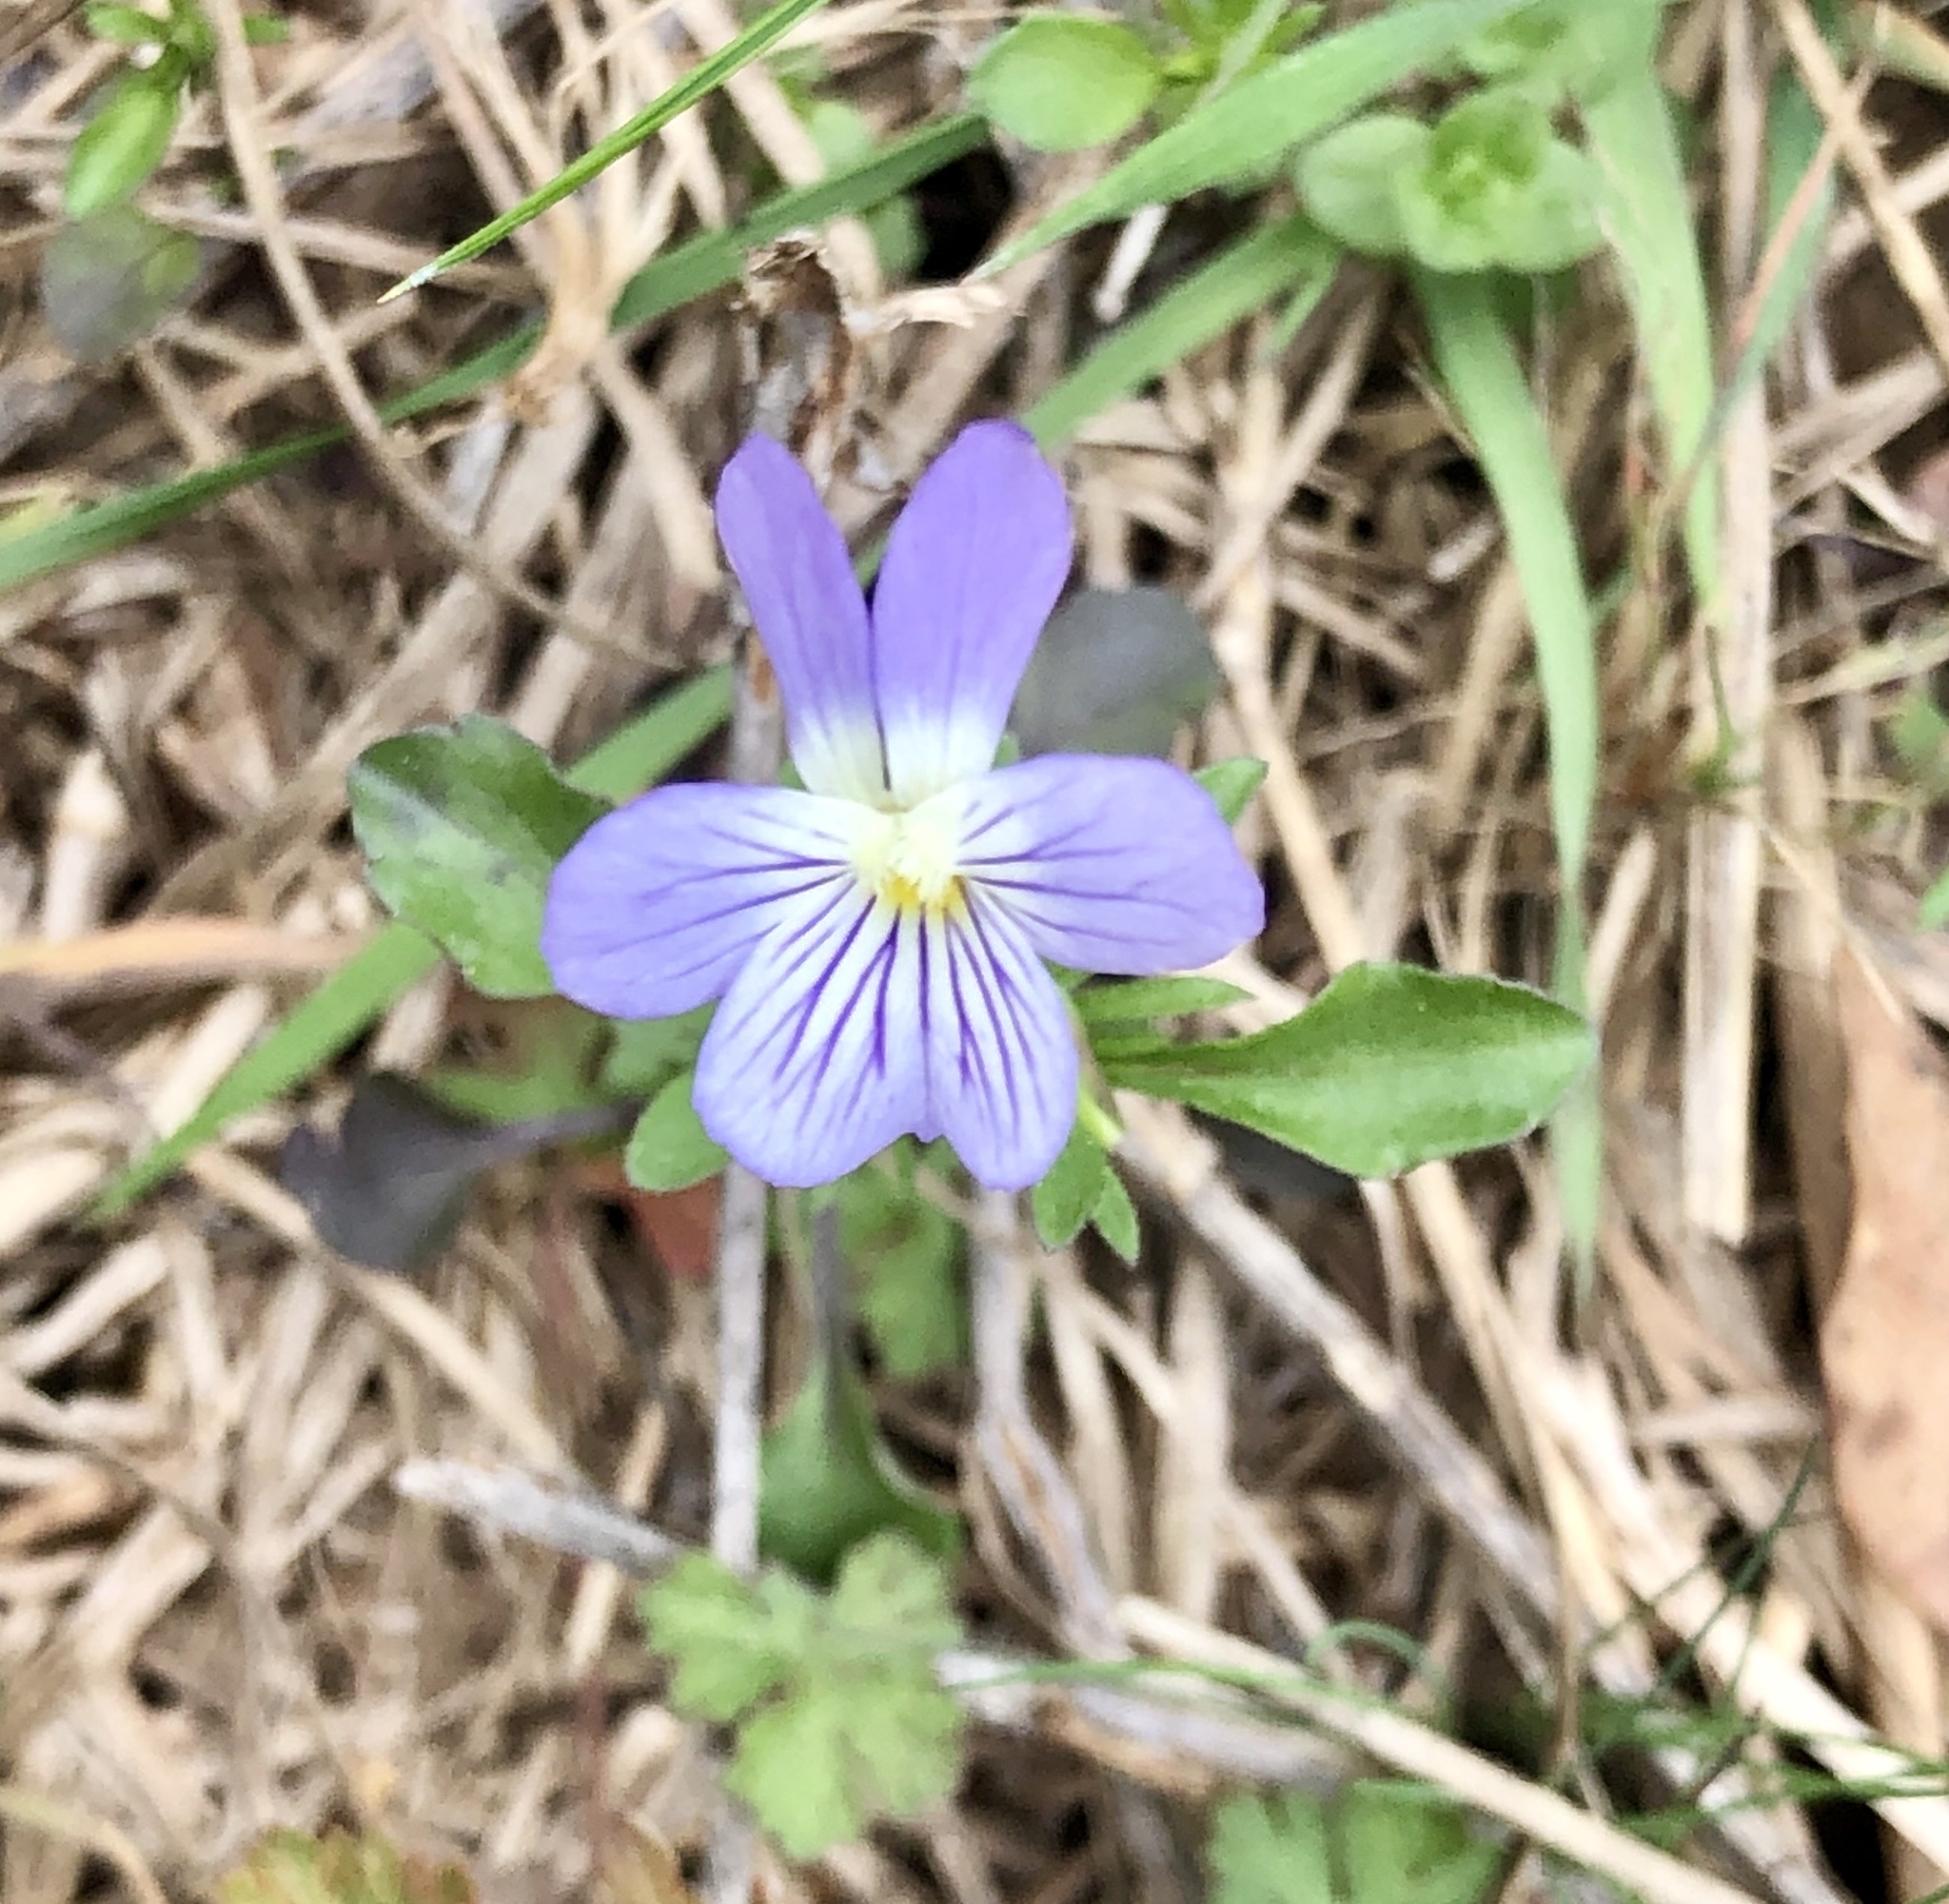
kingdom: Plantae
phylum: Tracheophyta
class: Magnoliopsida
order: Malpighiales
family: Violaceae
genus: Viola
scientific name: Viola rafinesquei
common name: American field pansy
